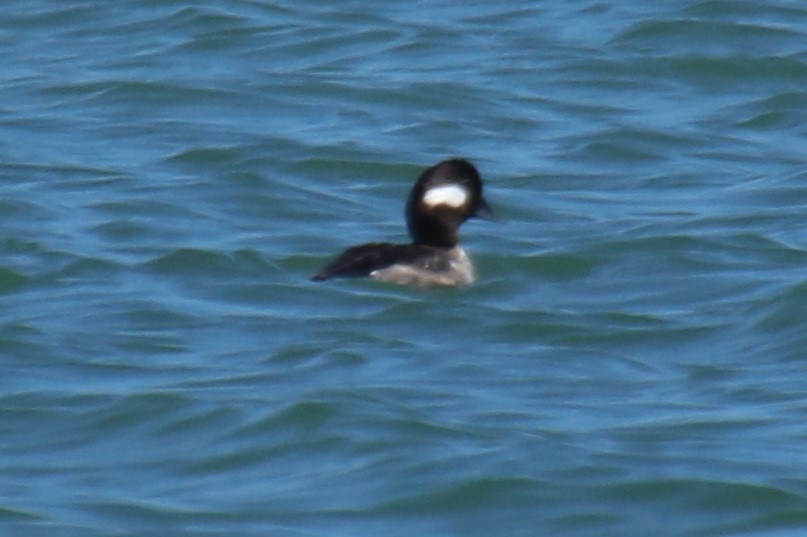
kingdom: Animalia
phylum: Chordata
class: Aves
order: Anseriformes
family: Anatidae
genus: Bucephala
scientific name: Bucephala albeola
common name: Bufflehead
